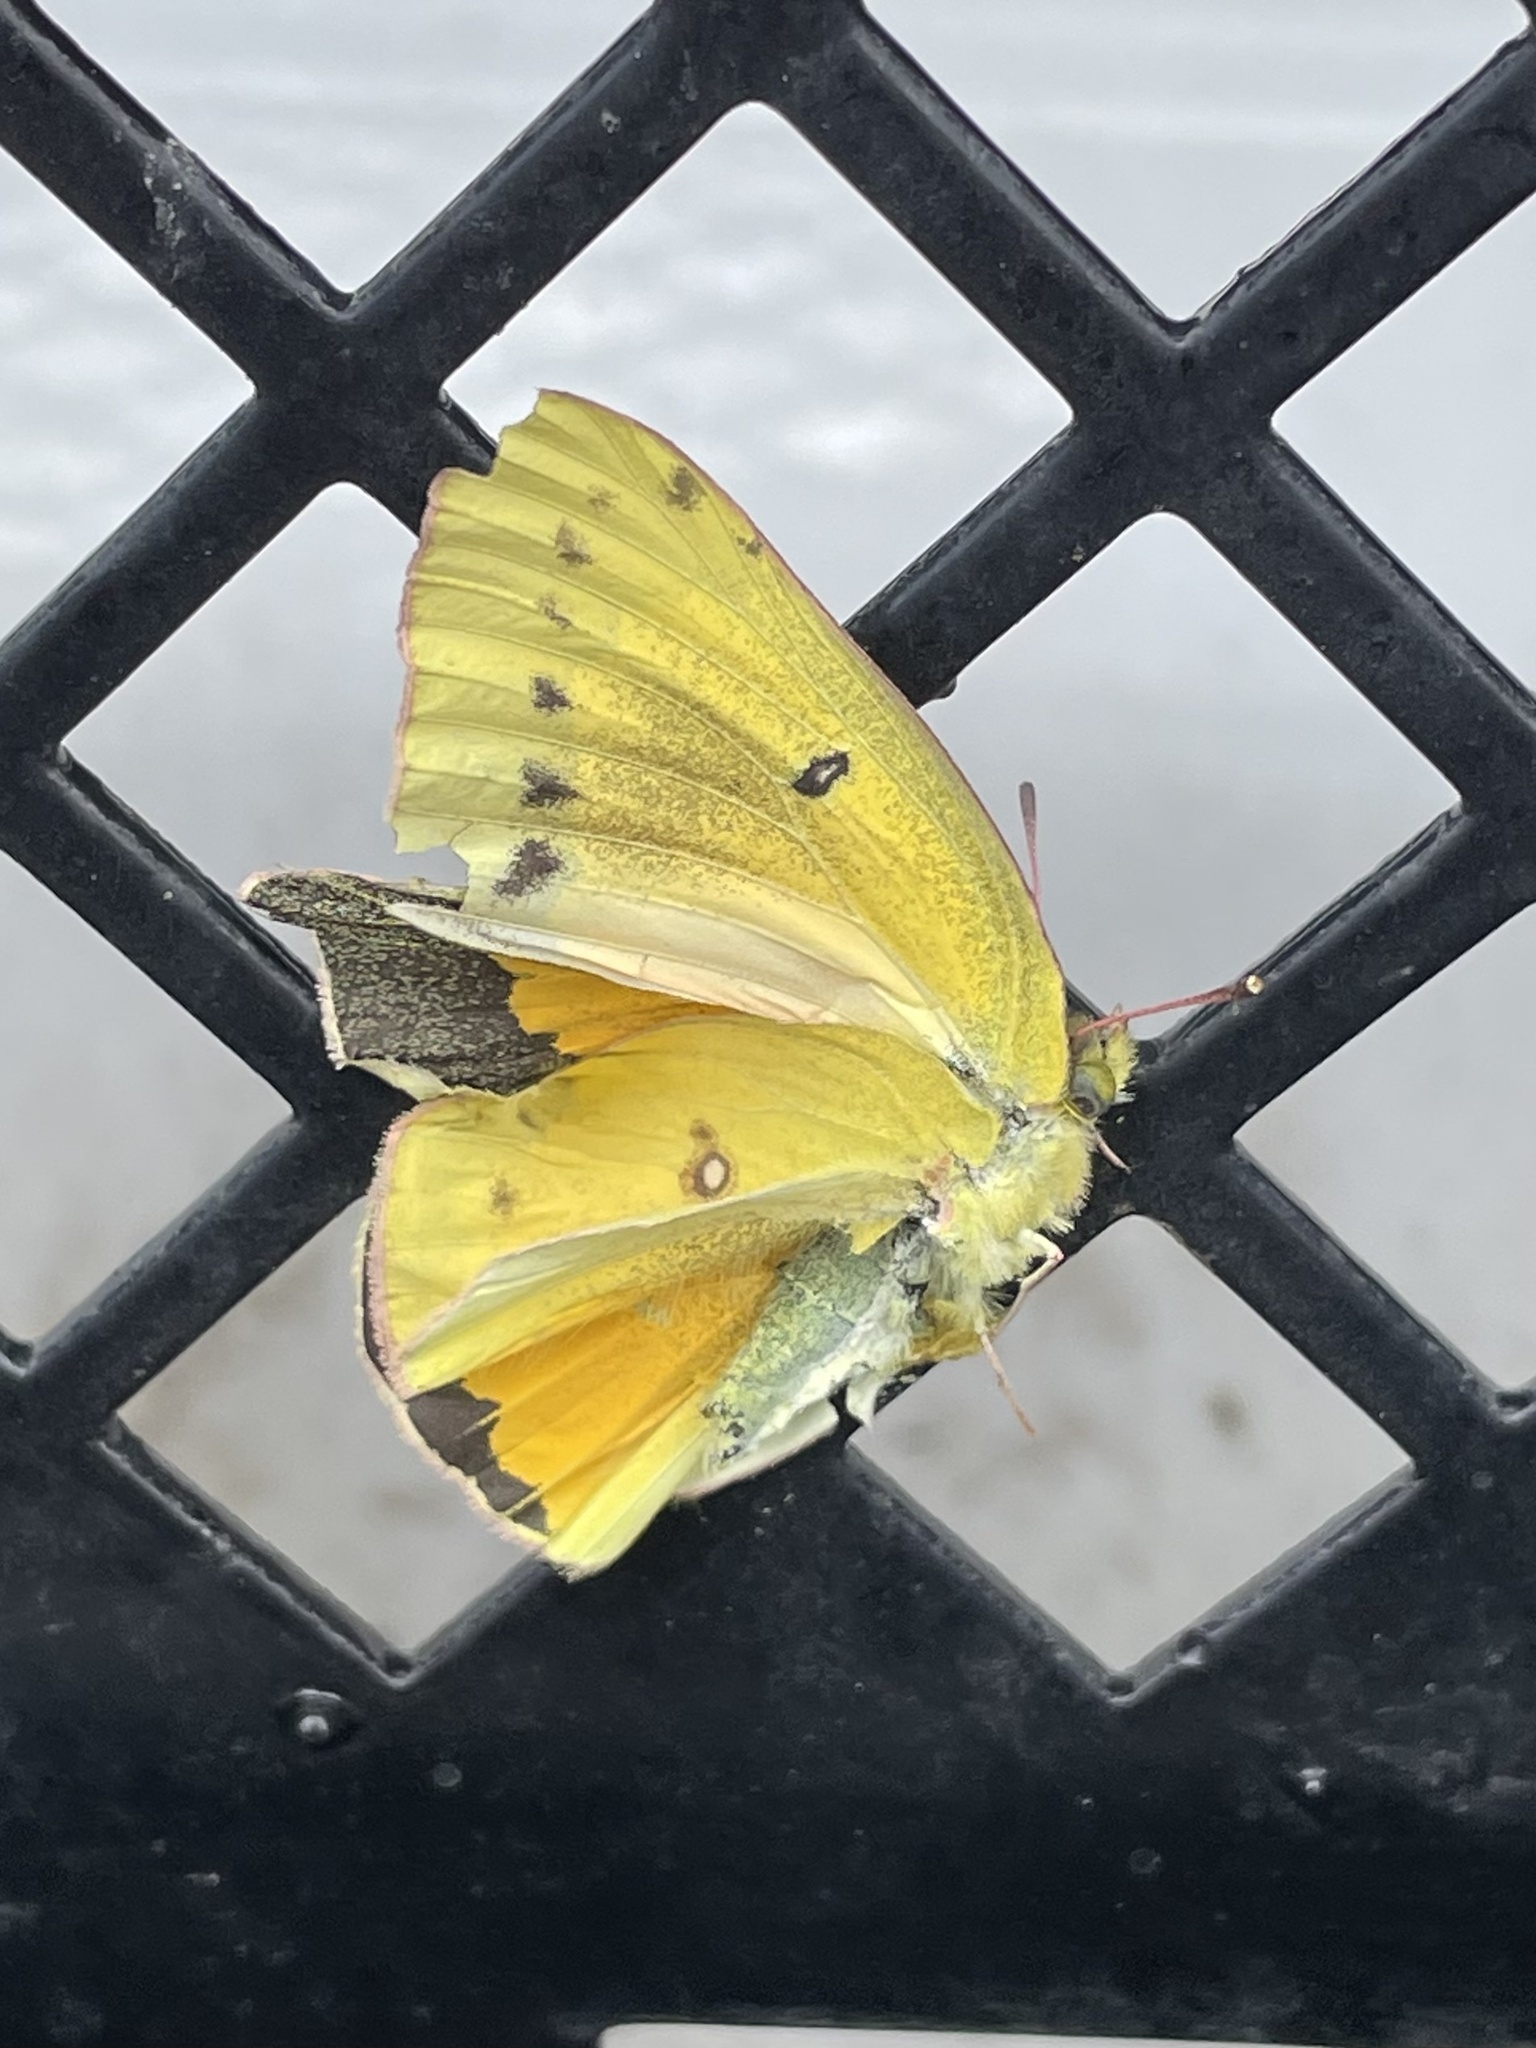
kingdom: Animalia
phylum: Arthropoda
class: Insecta
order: Lepidoptera
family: Pieridae
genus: Colias
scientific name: Colias eurytheme
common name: Alfalfa butterfly
